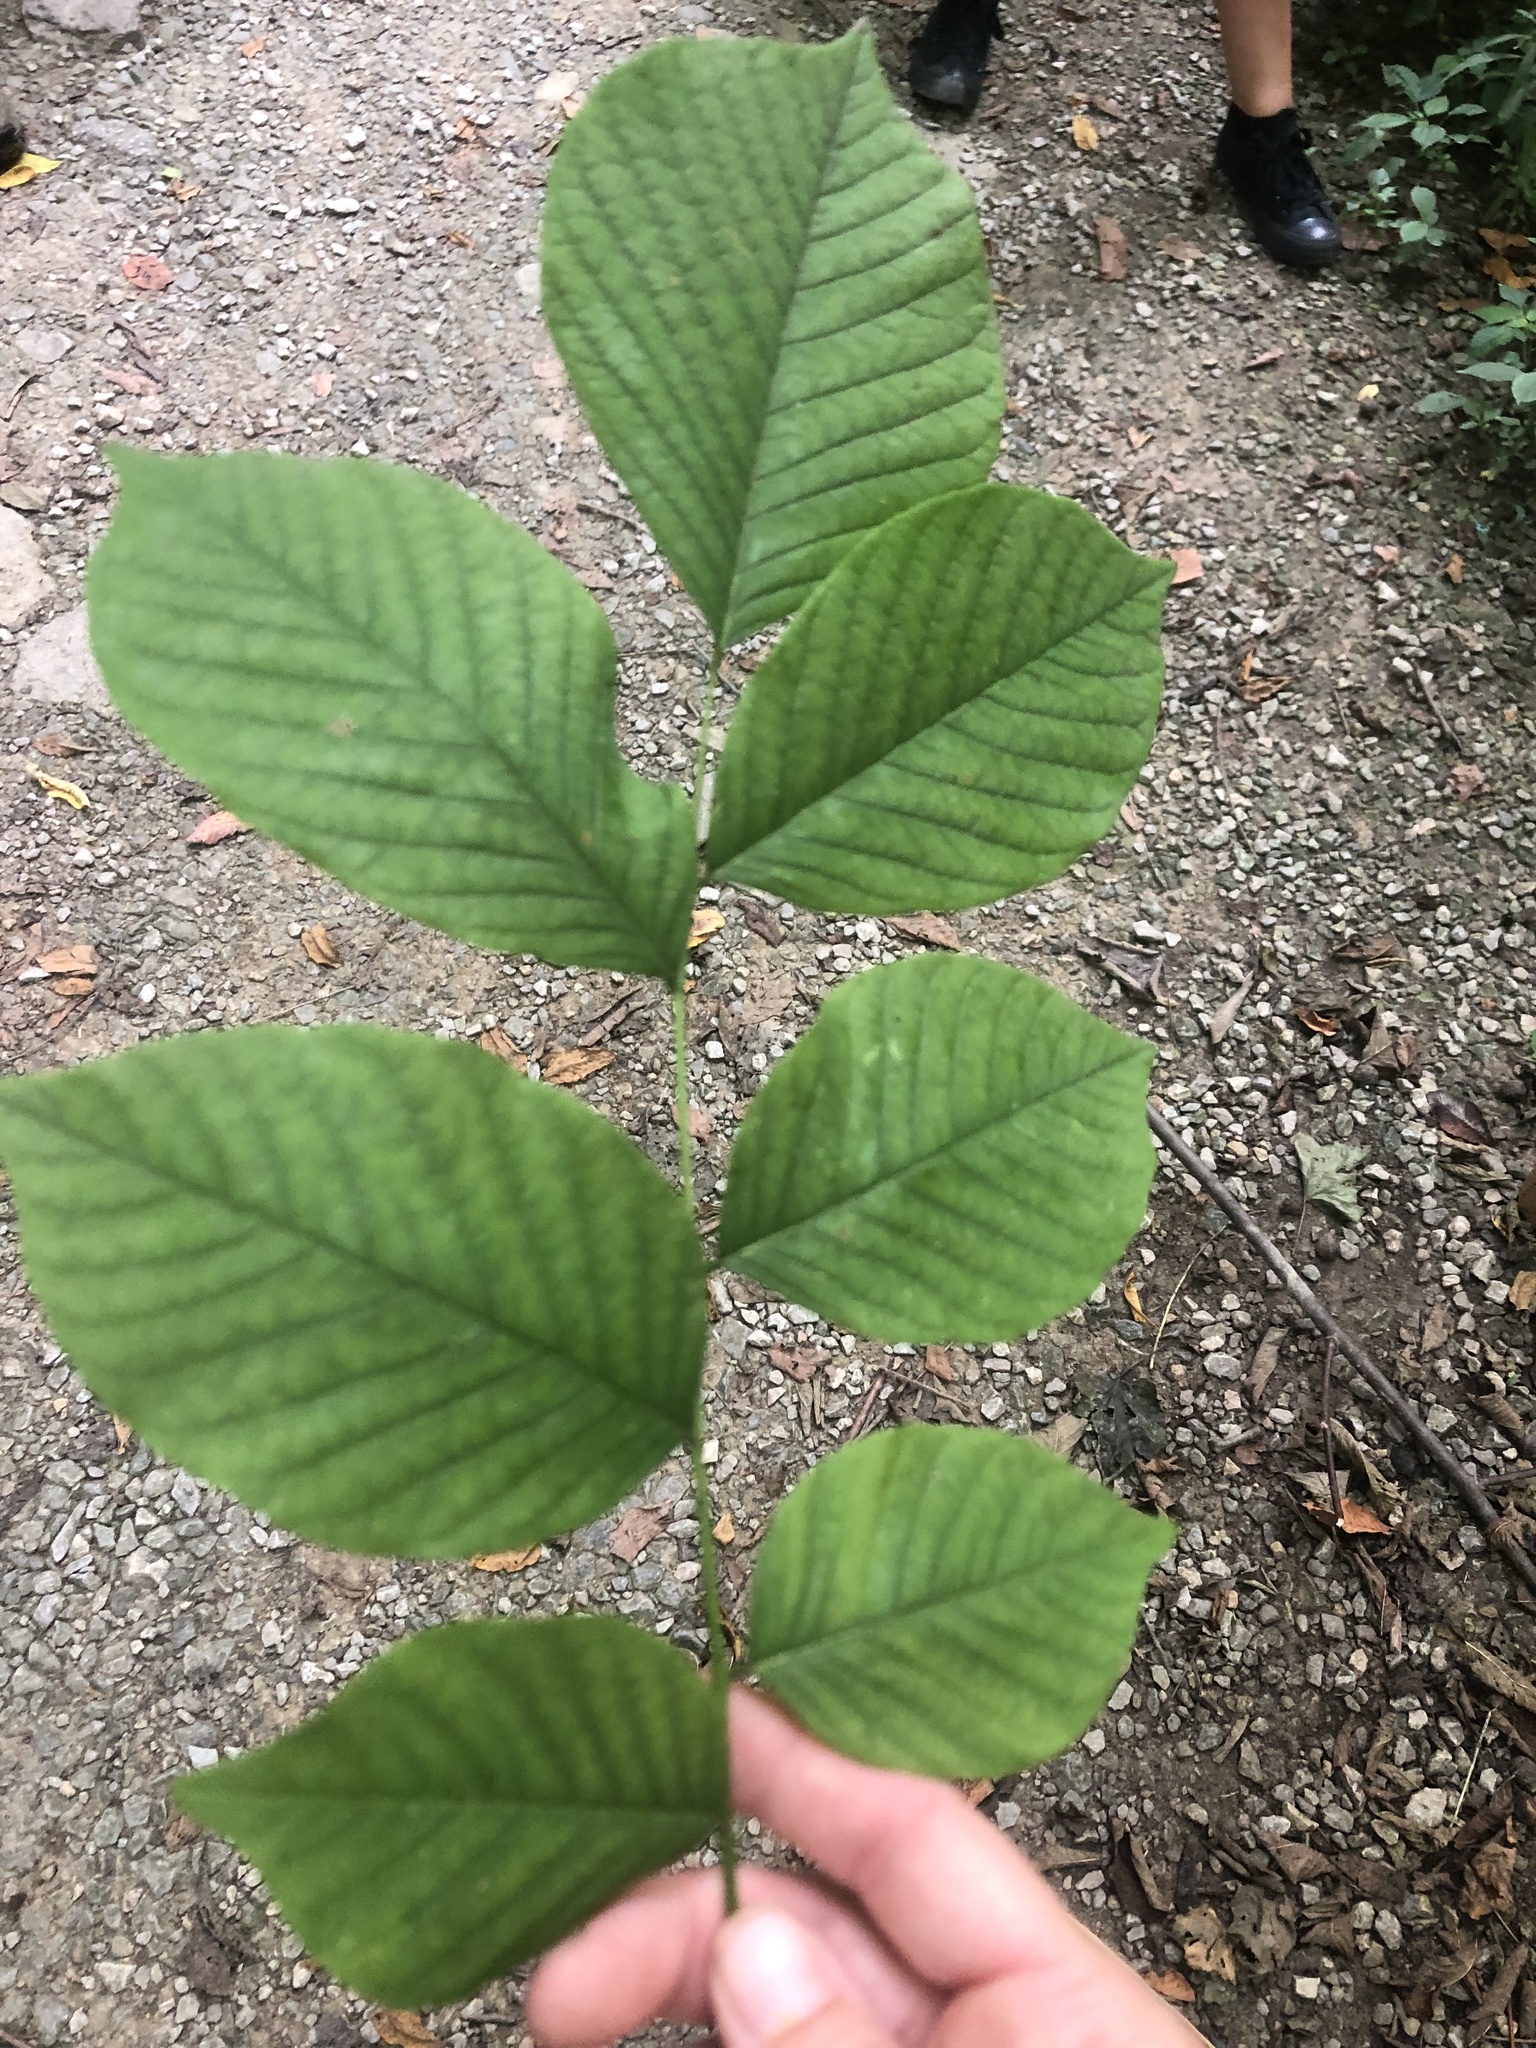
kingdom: Plantae
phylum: Tracheophyta
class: Magnoliopsida
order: Fabales
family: Fabaceae
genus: Cladrastis
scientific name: Cladrastis kentukea
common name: Kentucky yellow-wood
